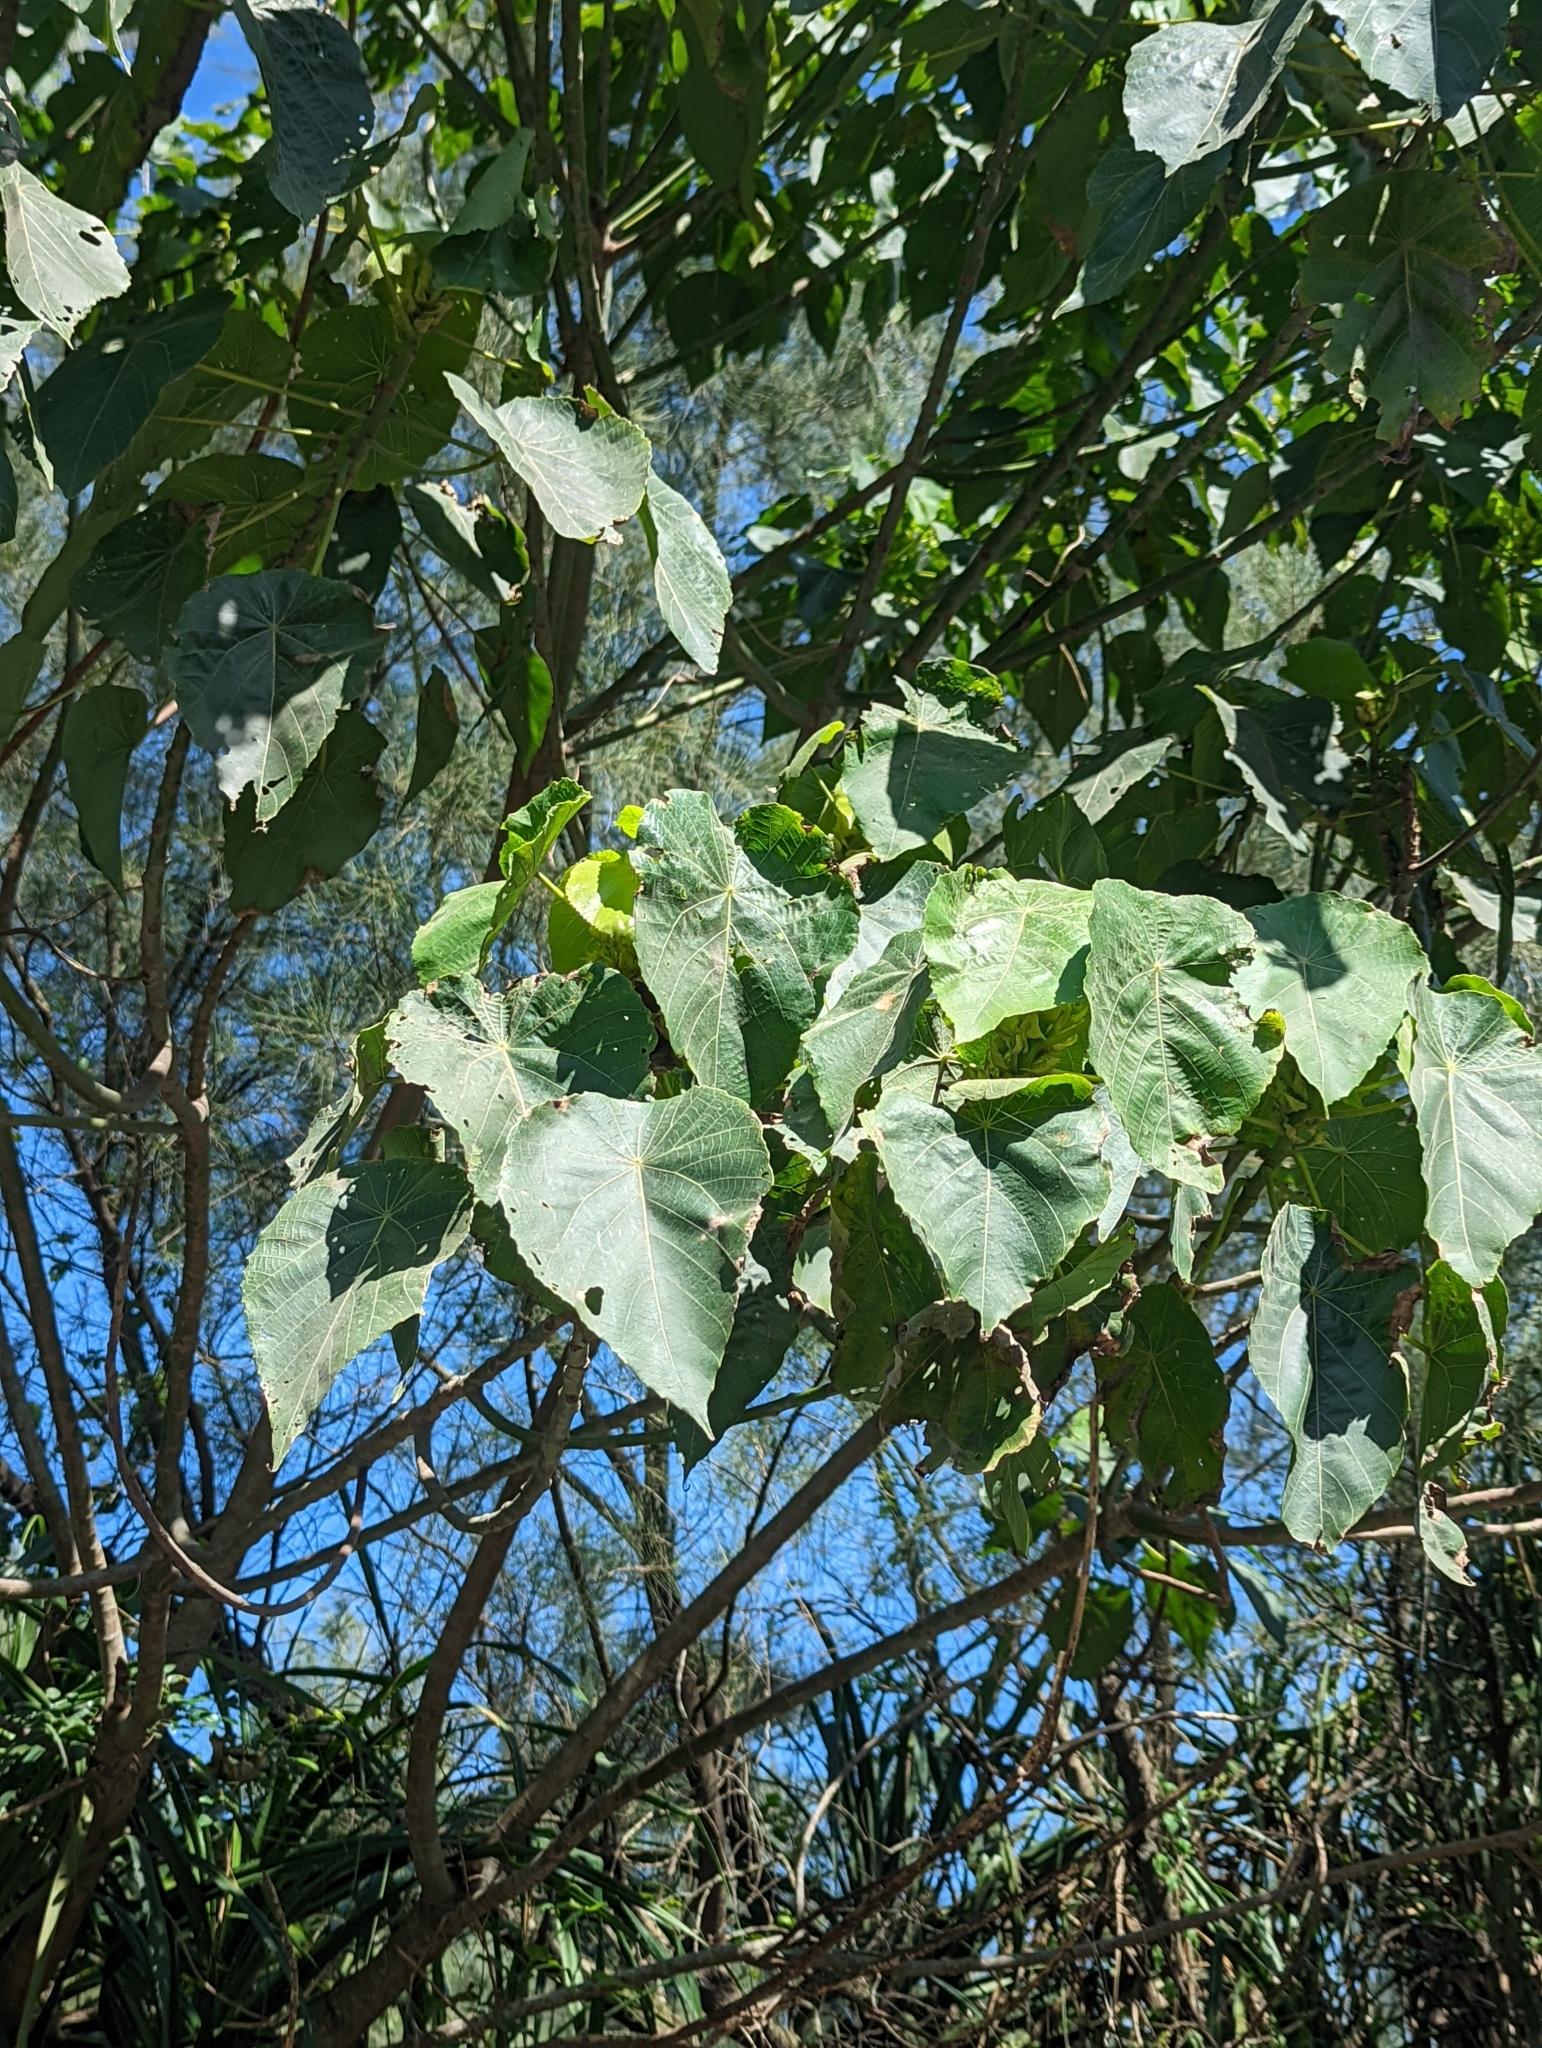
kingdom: Plantae
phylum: Tracheophyta
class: Magnoliopsida
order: Malpighiales
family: Euphorbiaceae
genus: Macaranga
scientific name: Macaranga tanarius
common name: Parasol leaf tree
